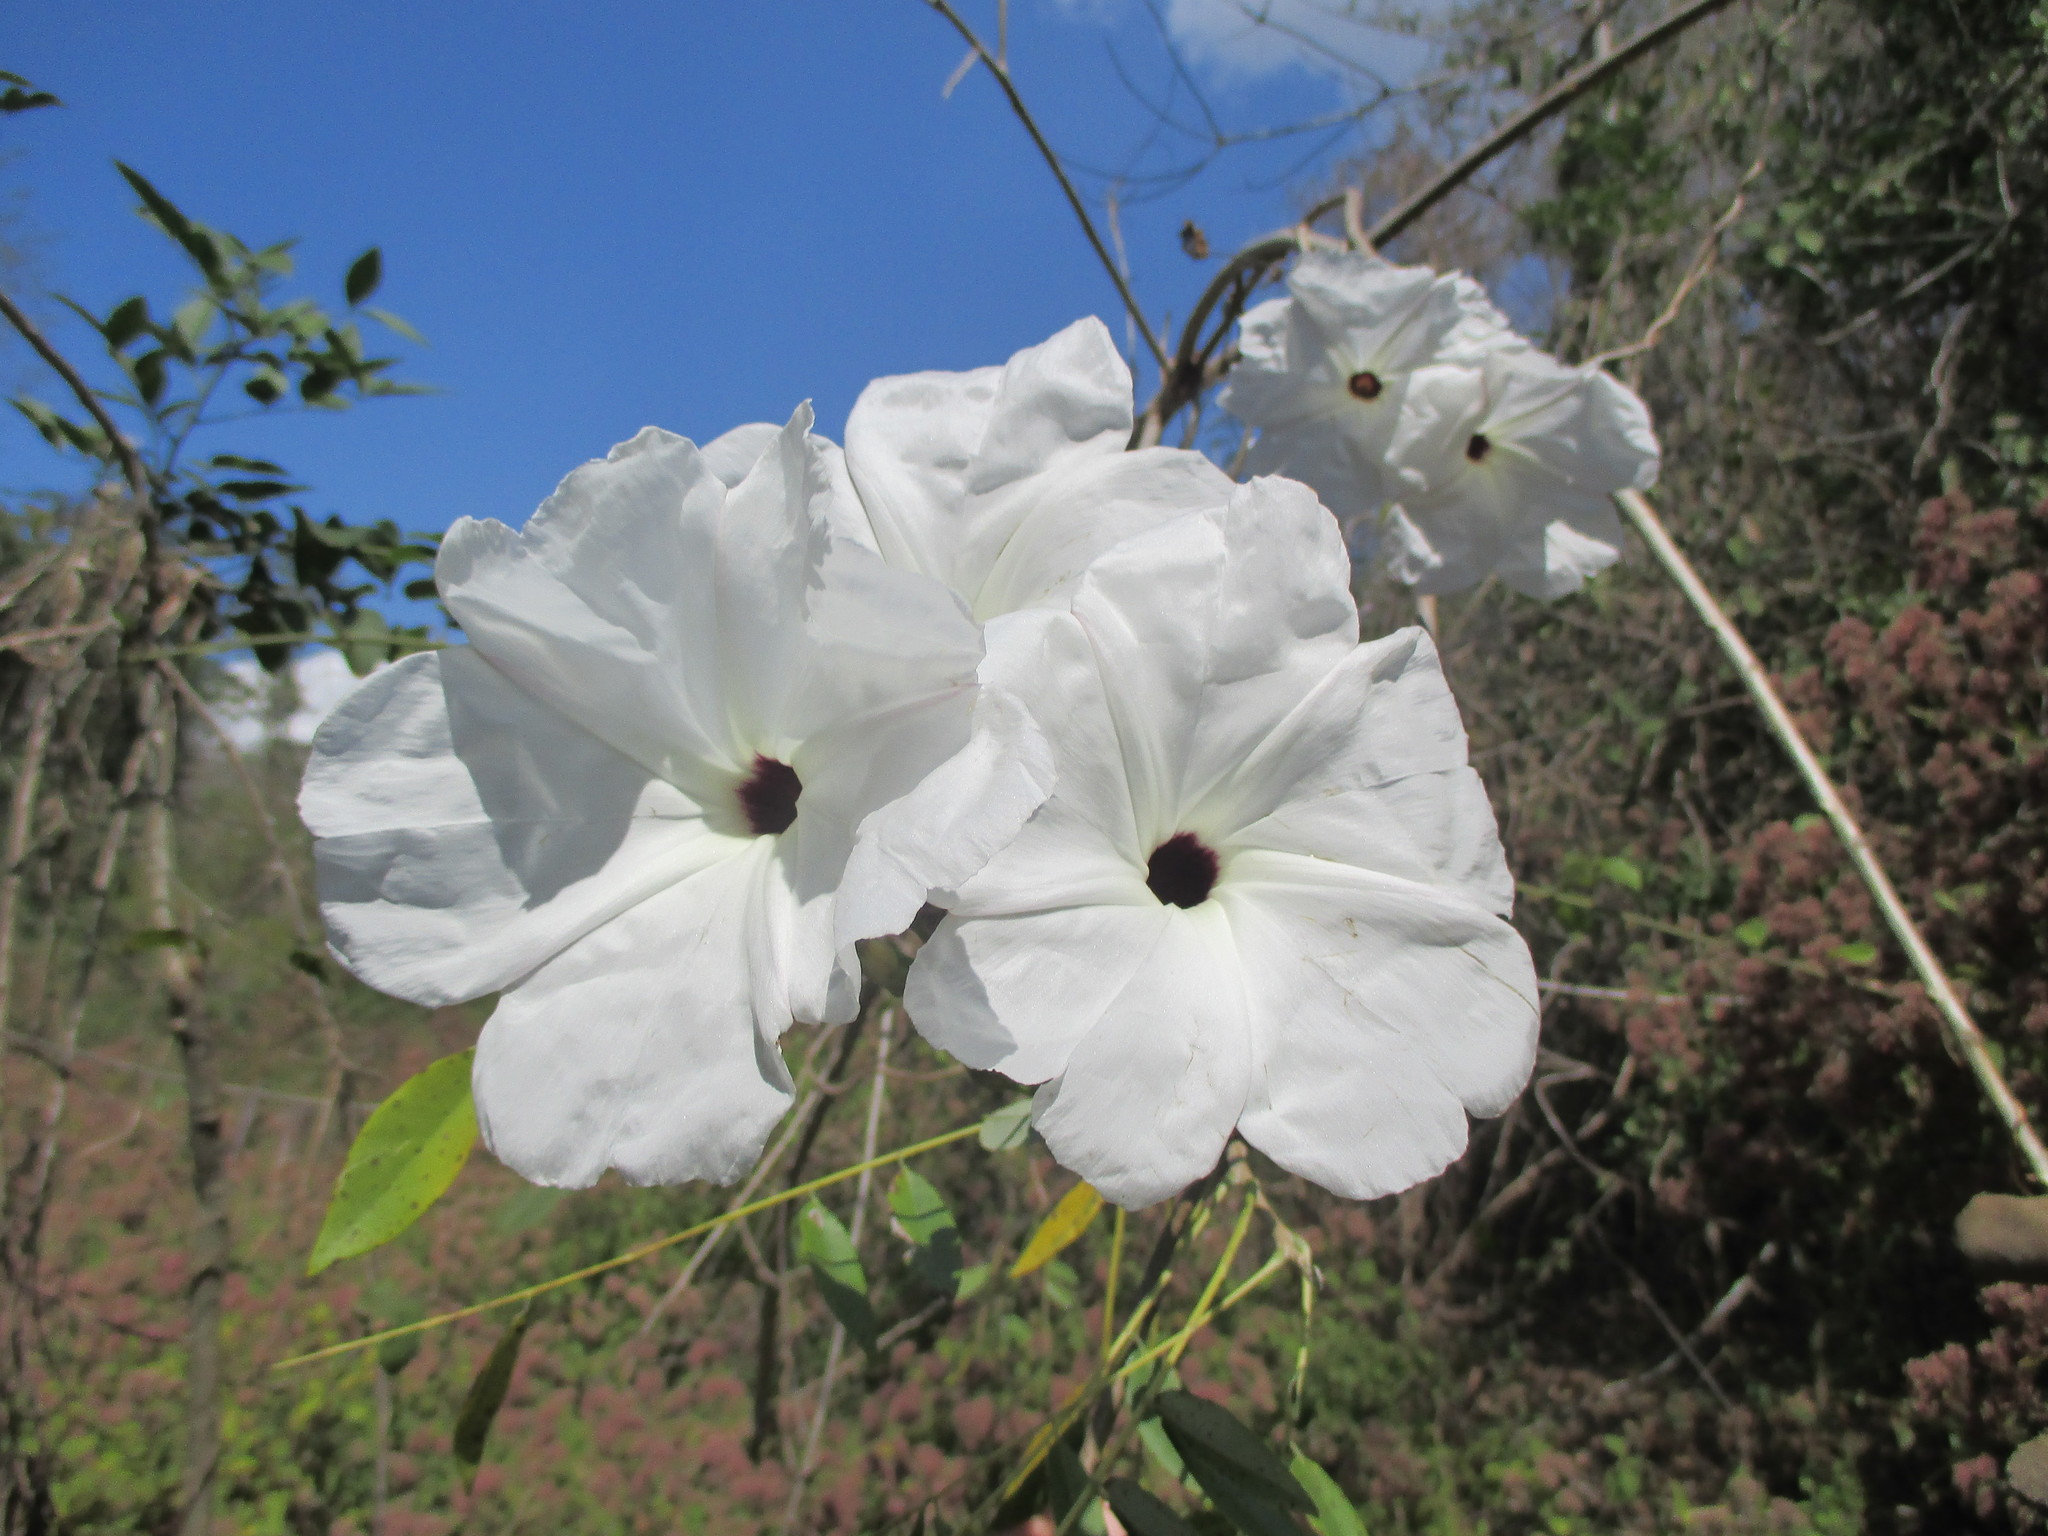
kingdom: Plantae
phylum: Tracheophyta
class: Magnoliopsida
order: Solanales
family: Convolvulaceae
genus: Ipomoea
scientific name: Ipomoea populina
